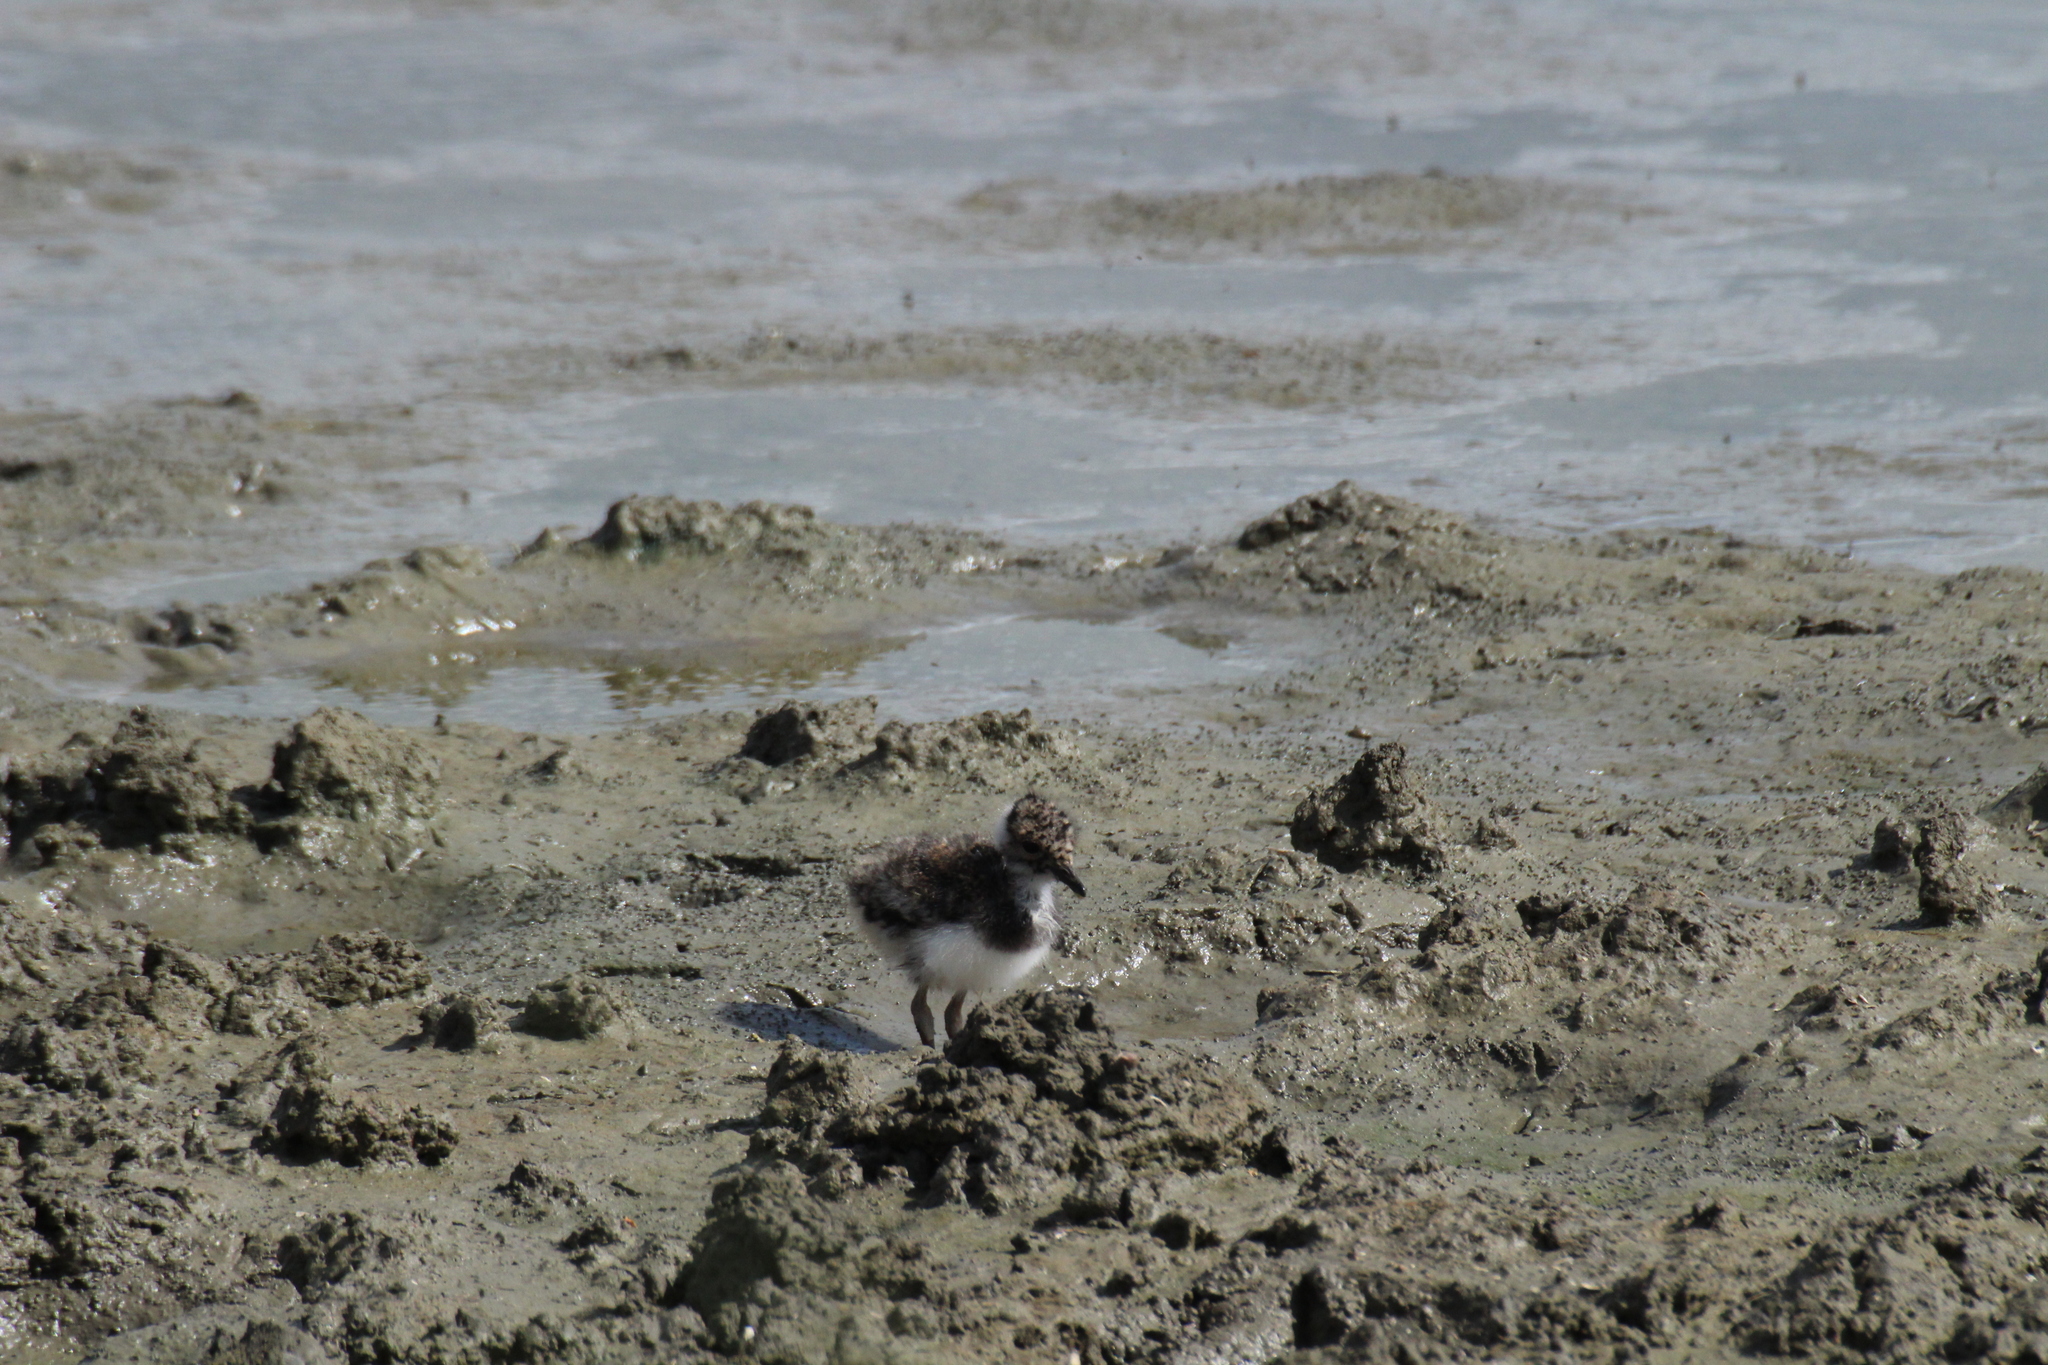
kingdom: Animalia
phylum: Chordata
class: Aves
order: Charadriiformes
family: Charadriidae
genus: Vanellus
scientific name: Vanellus vanellus
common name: Northern lapwing
